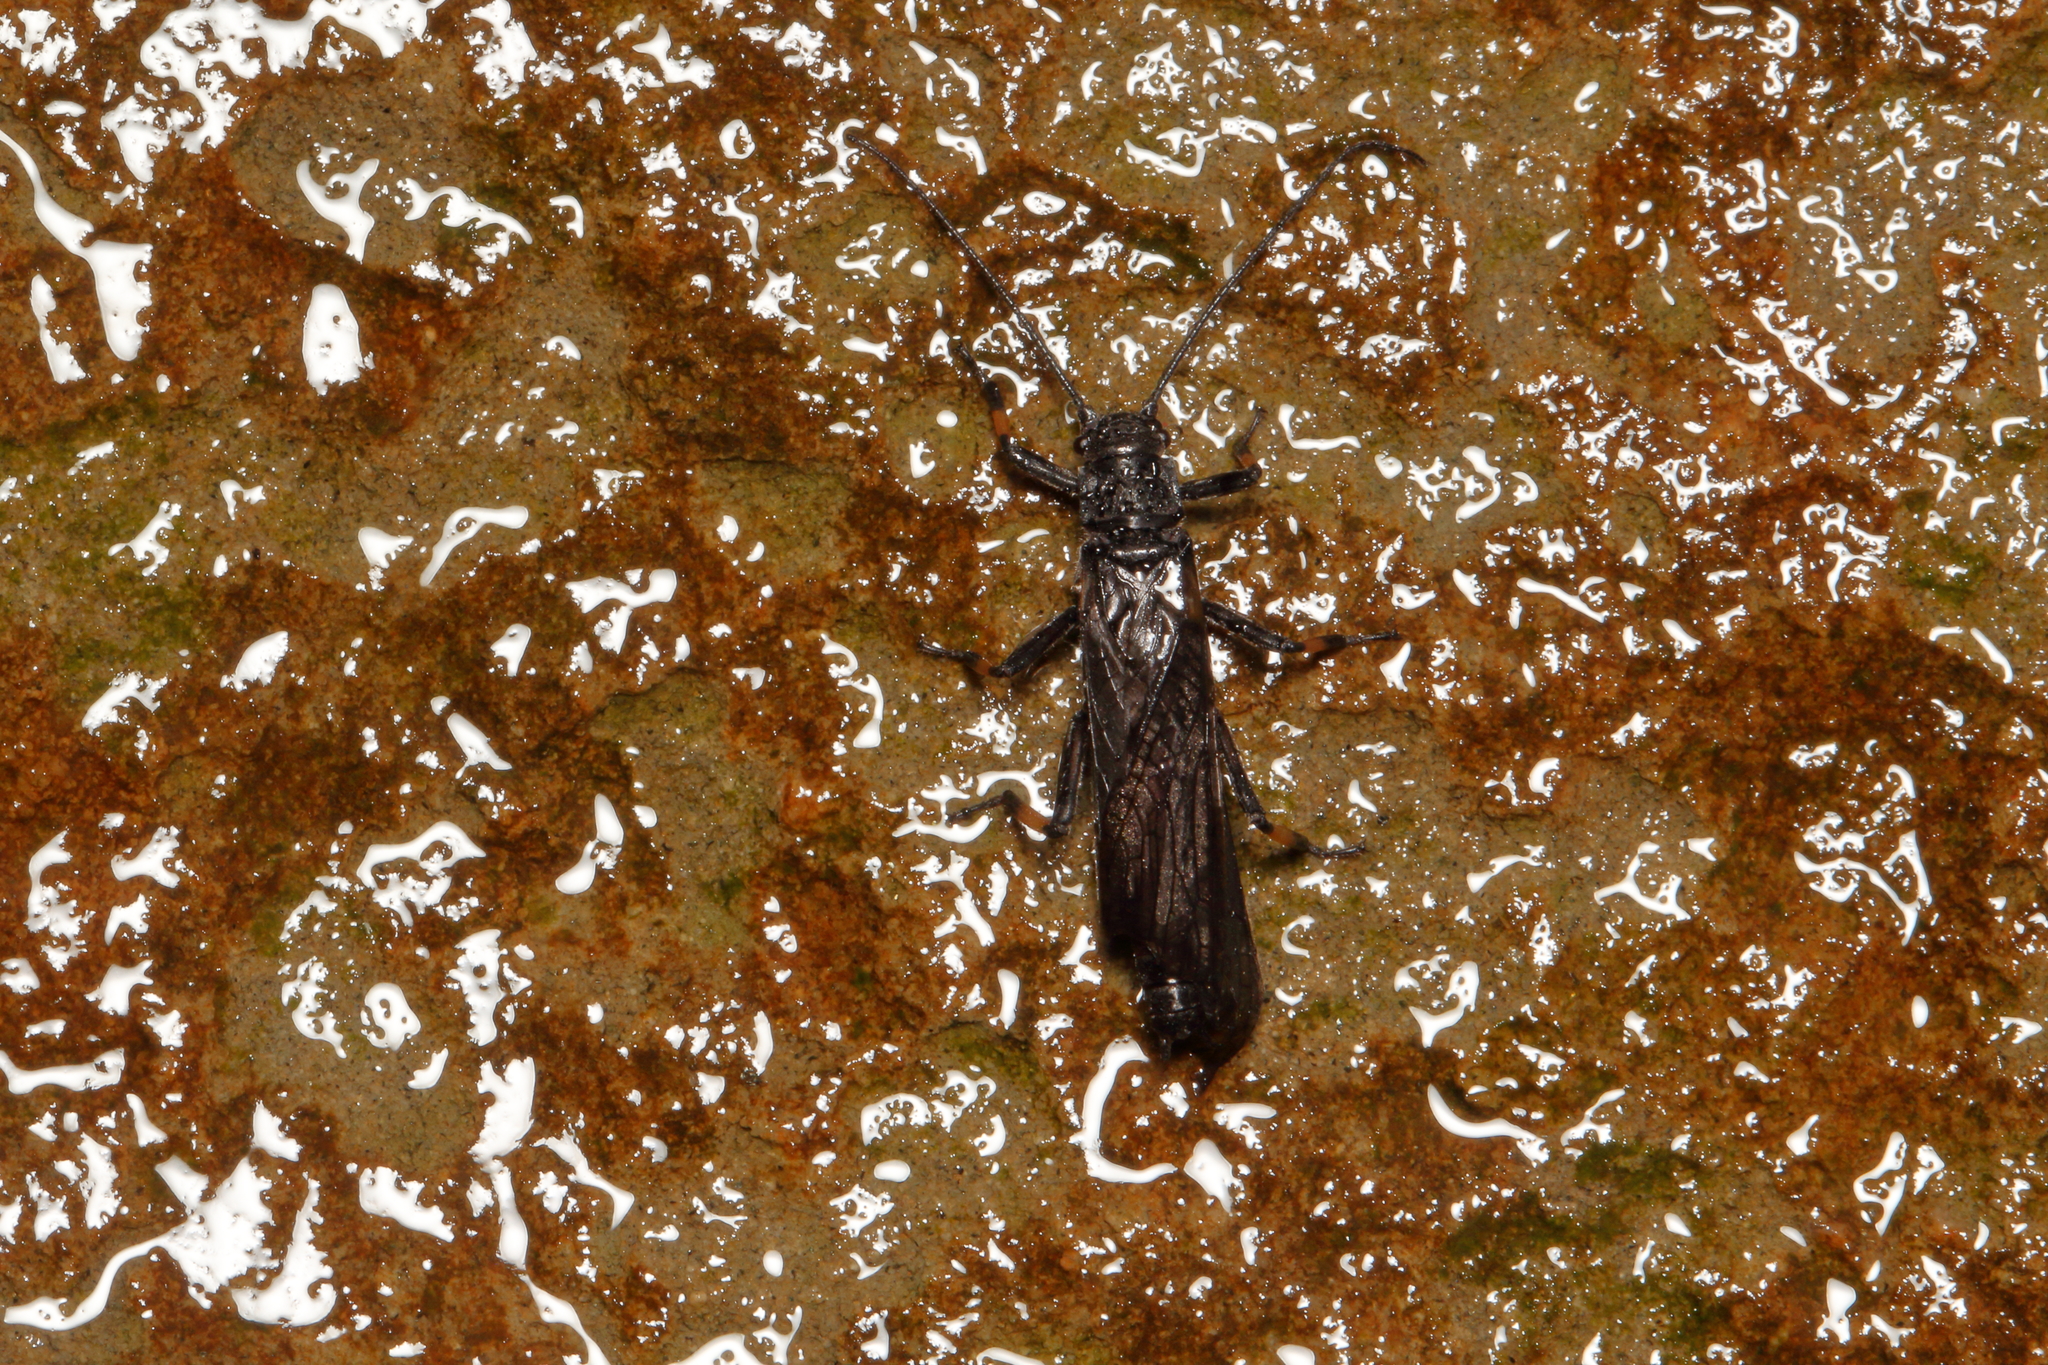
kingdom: Animalia
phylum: Arthropoda
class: Insecta
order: Plecoptera
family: Austroperlidae
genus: Austroperla
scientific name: Austroperla cyrene
